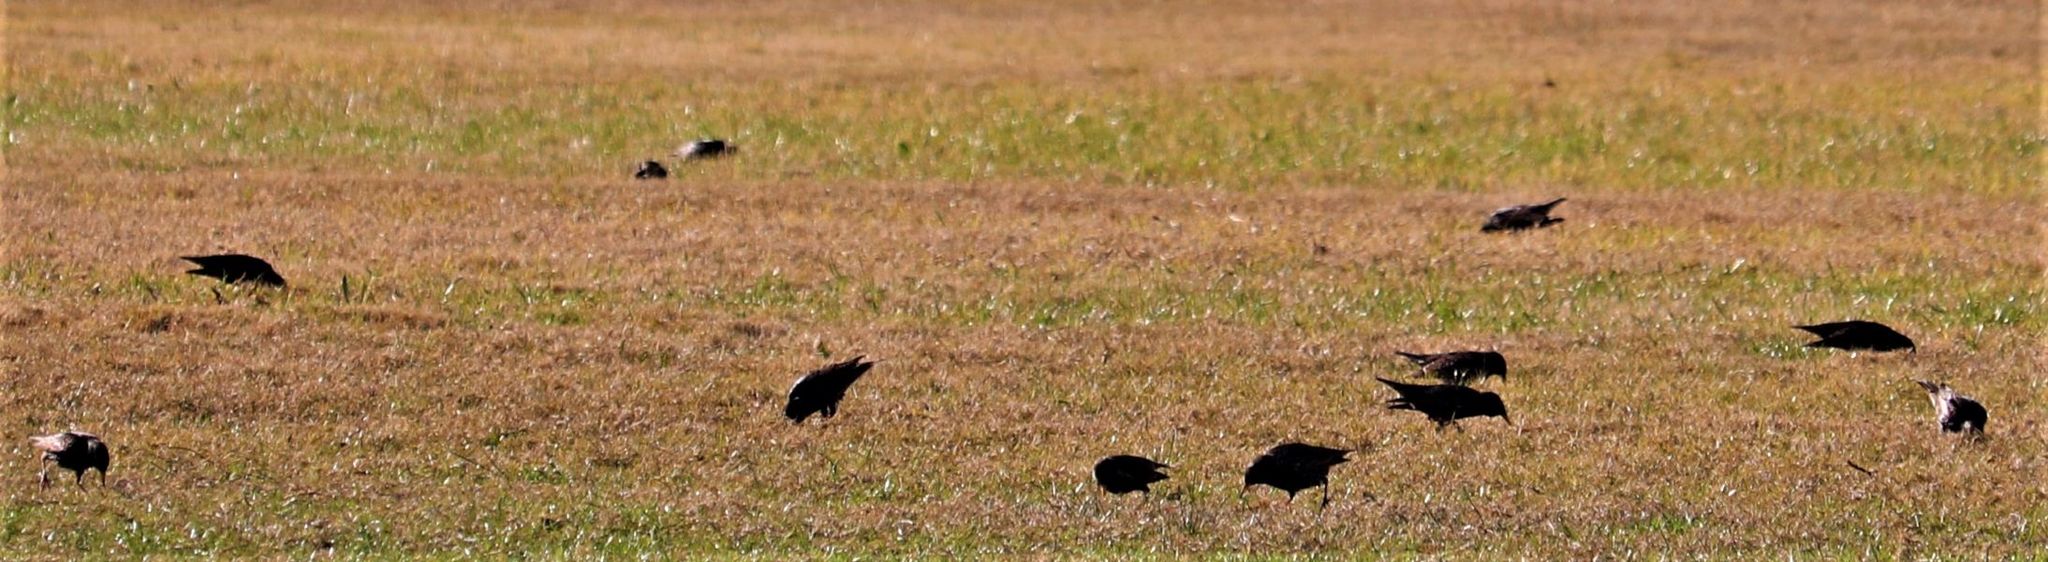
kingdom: Animalia
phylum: Chordata
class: Aves
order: Passeriformes
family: Sturnidae
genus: Sturnus
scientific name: Sturnus vulgaris
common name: Common starling
